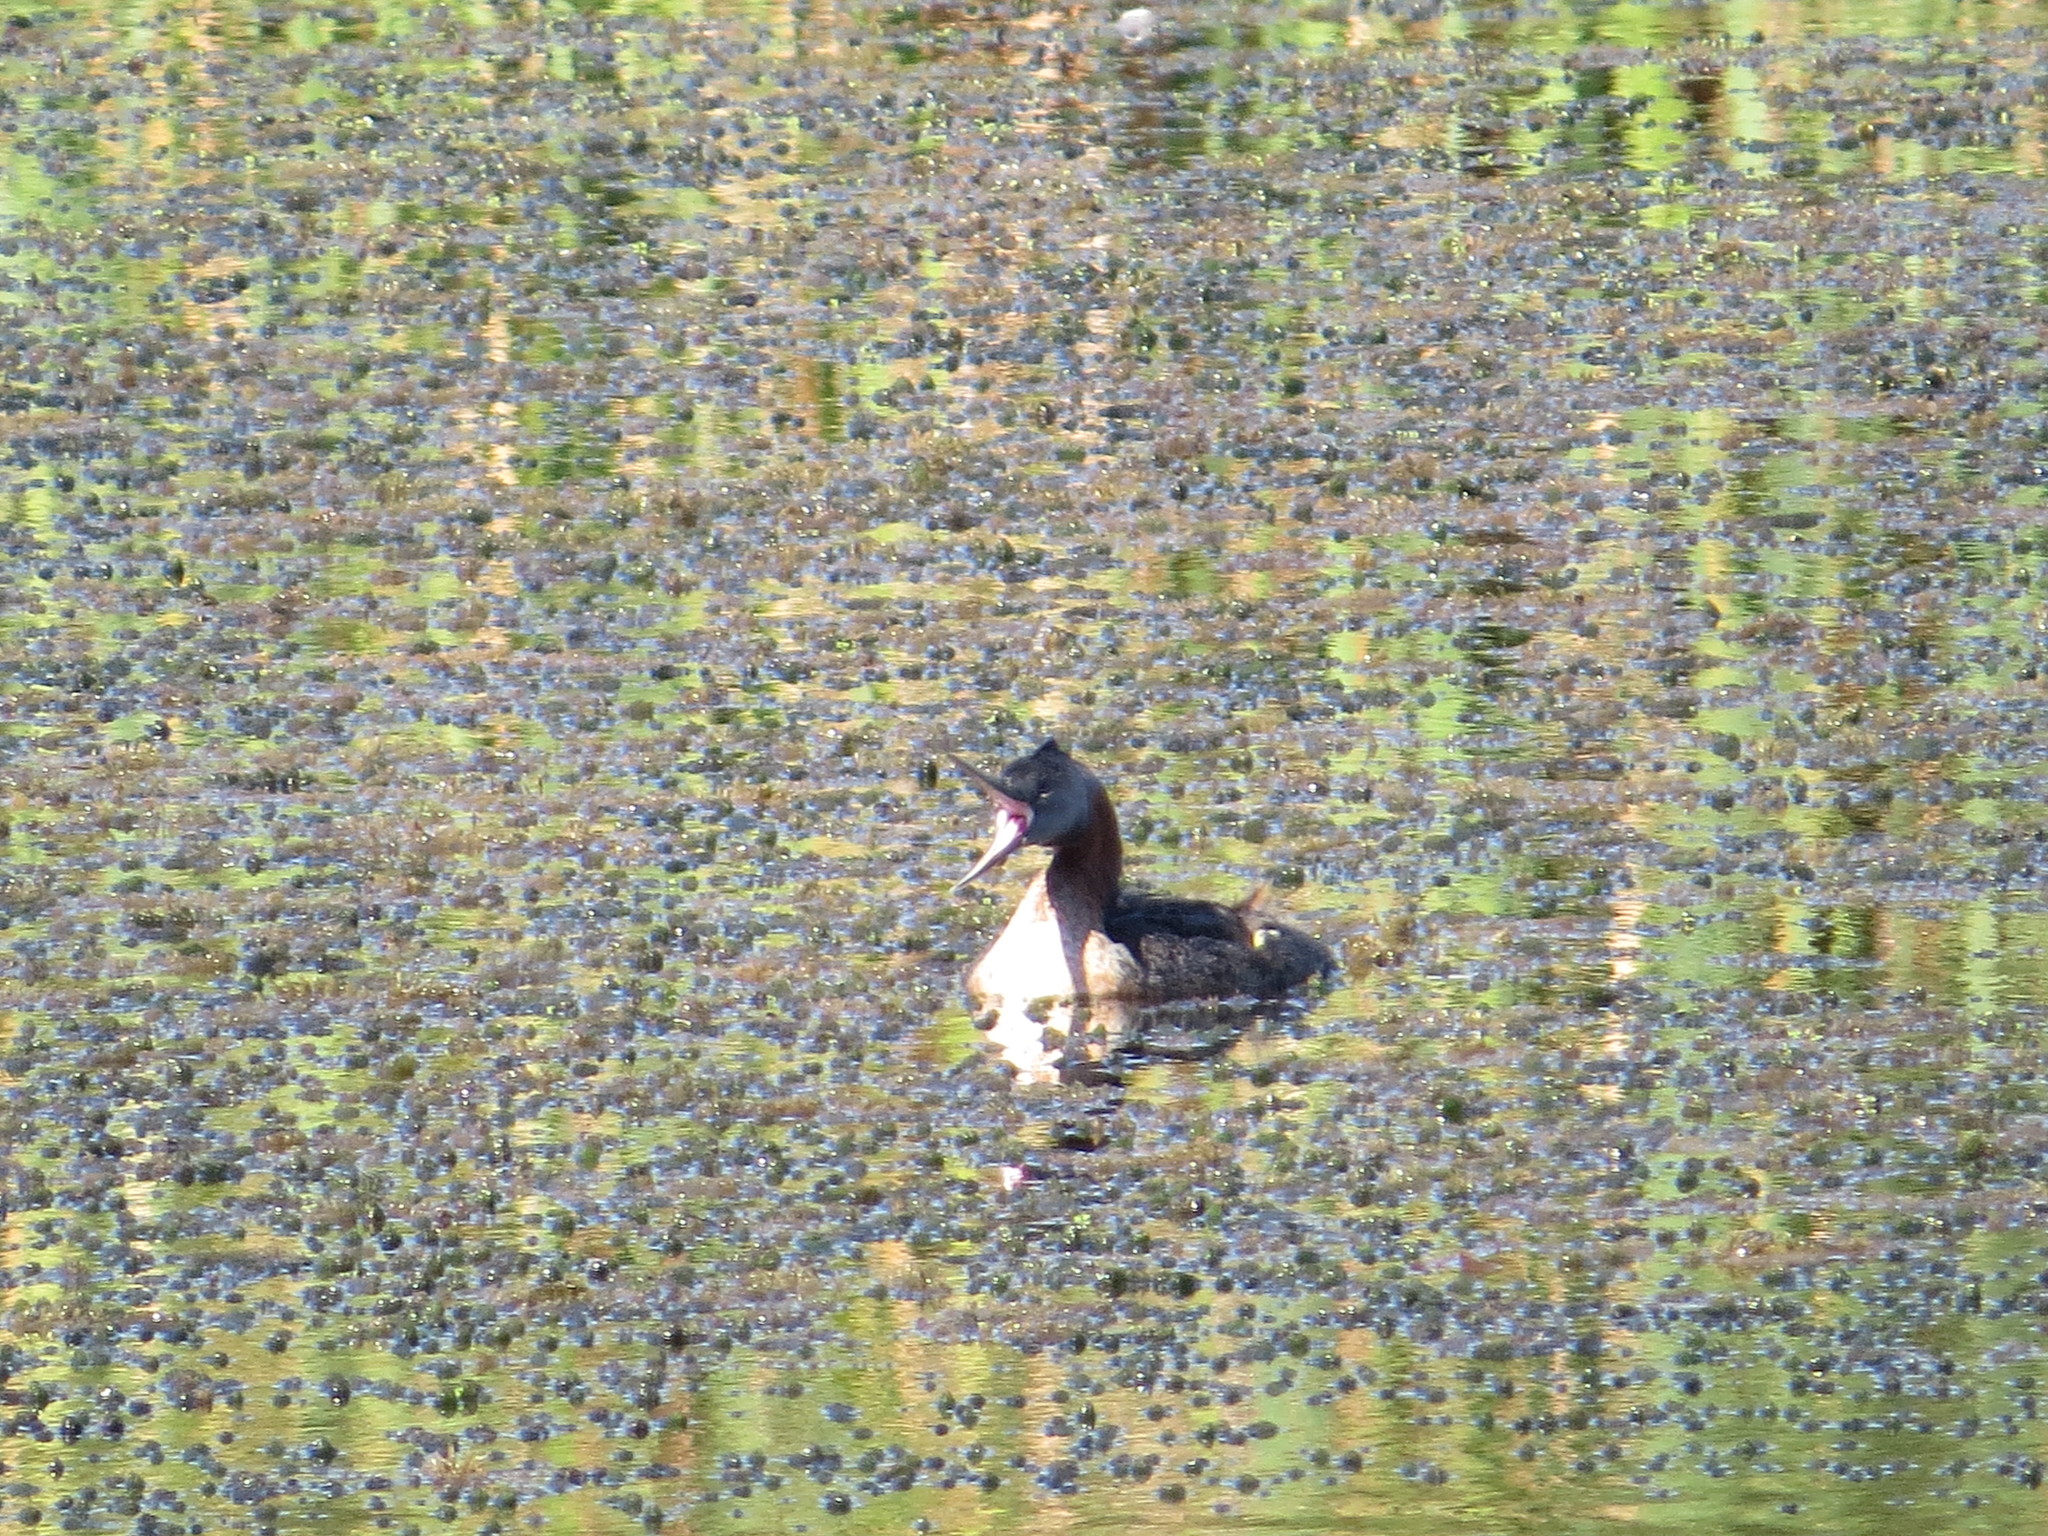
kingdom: Animalia
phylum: Chordata
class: Aves
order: Podicipediformes
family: Podicipedidae
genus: Podiceps
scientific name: Podiceps major
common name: Great grebe
